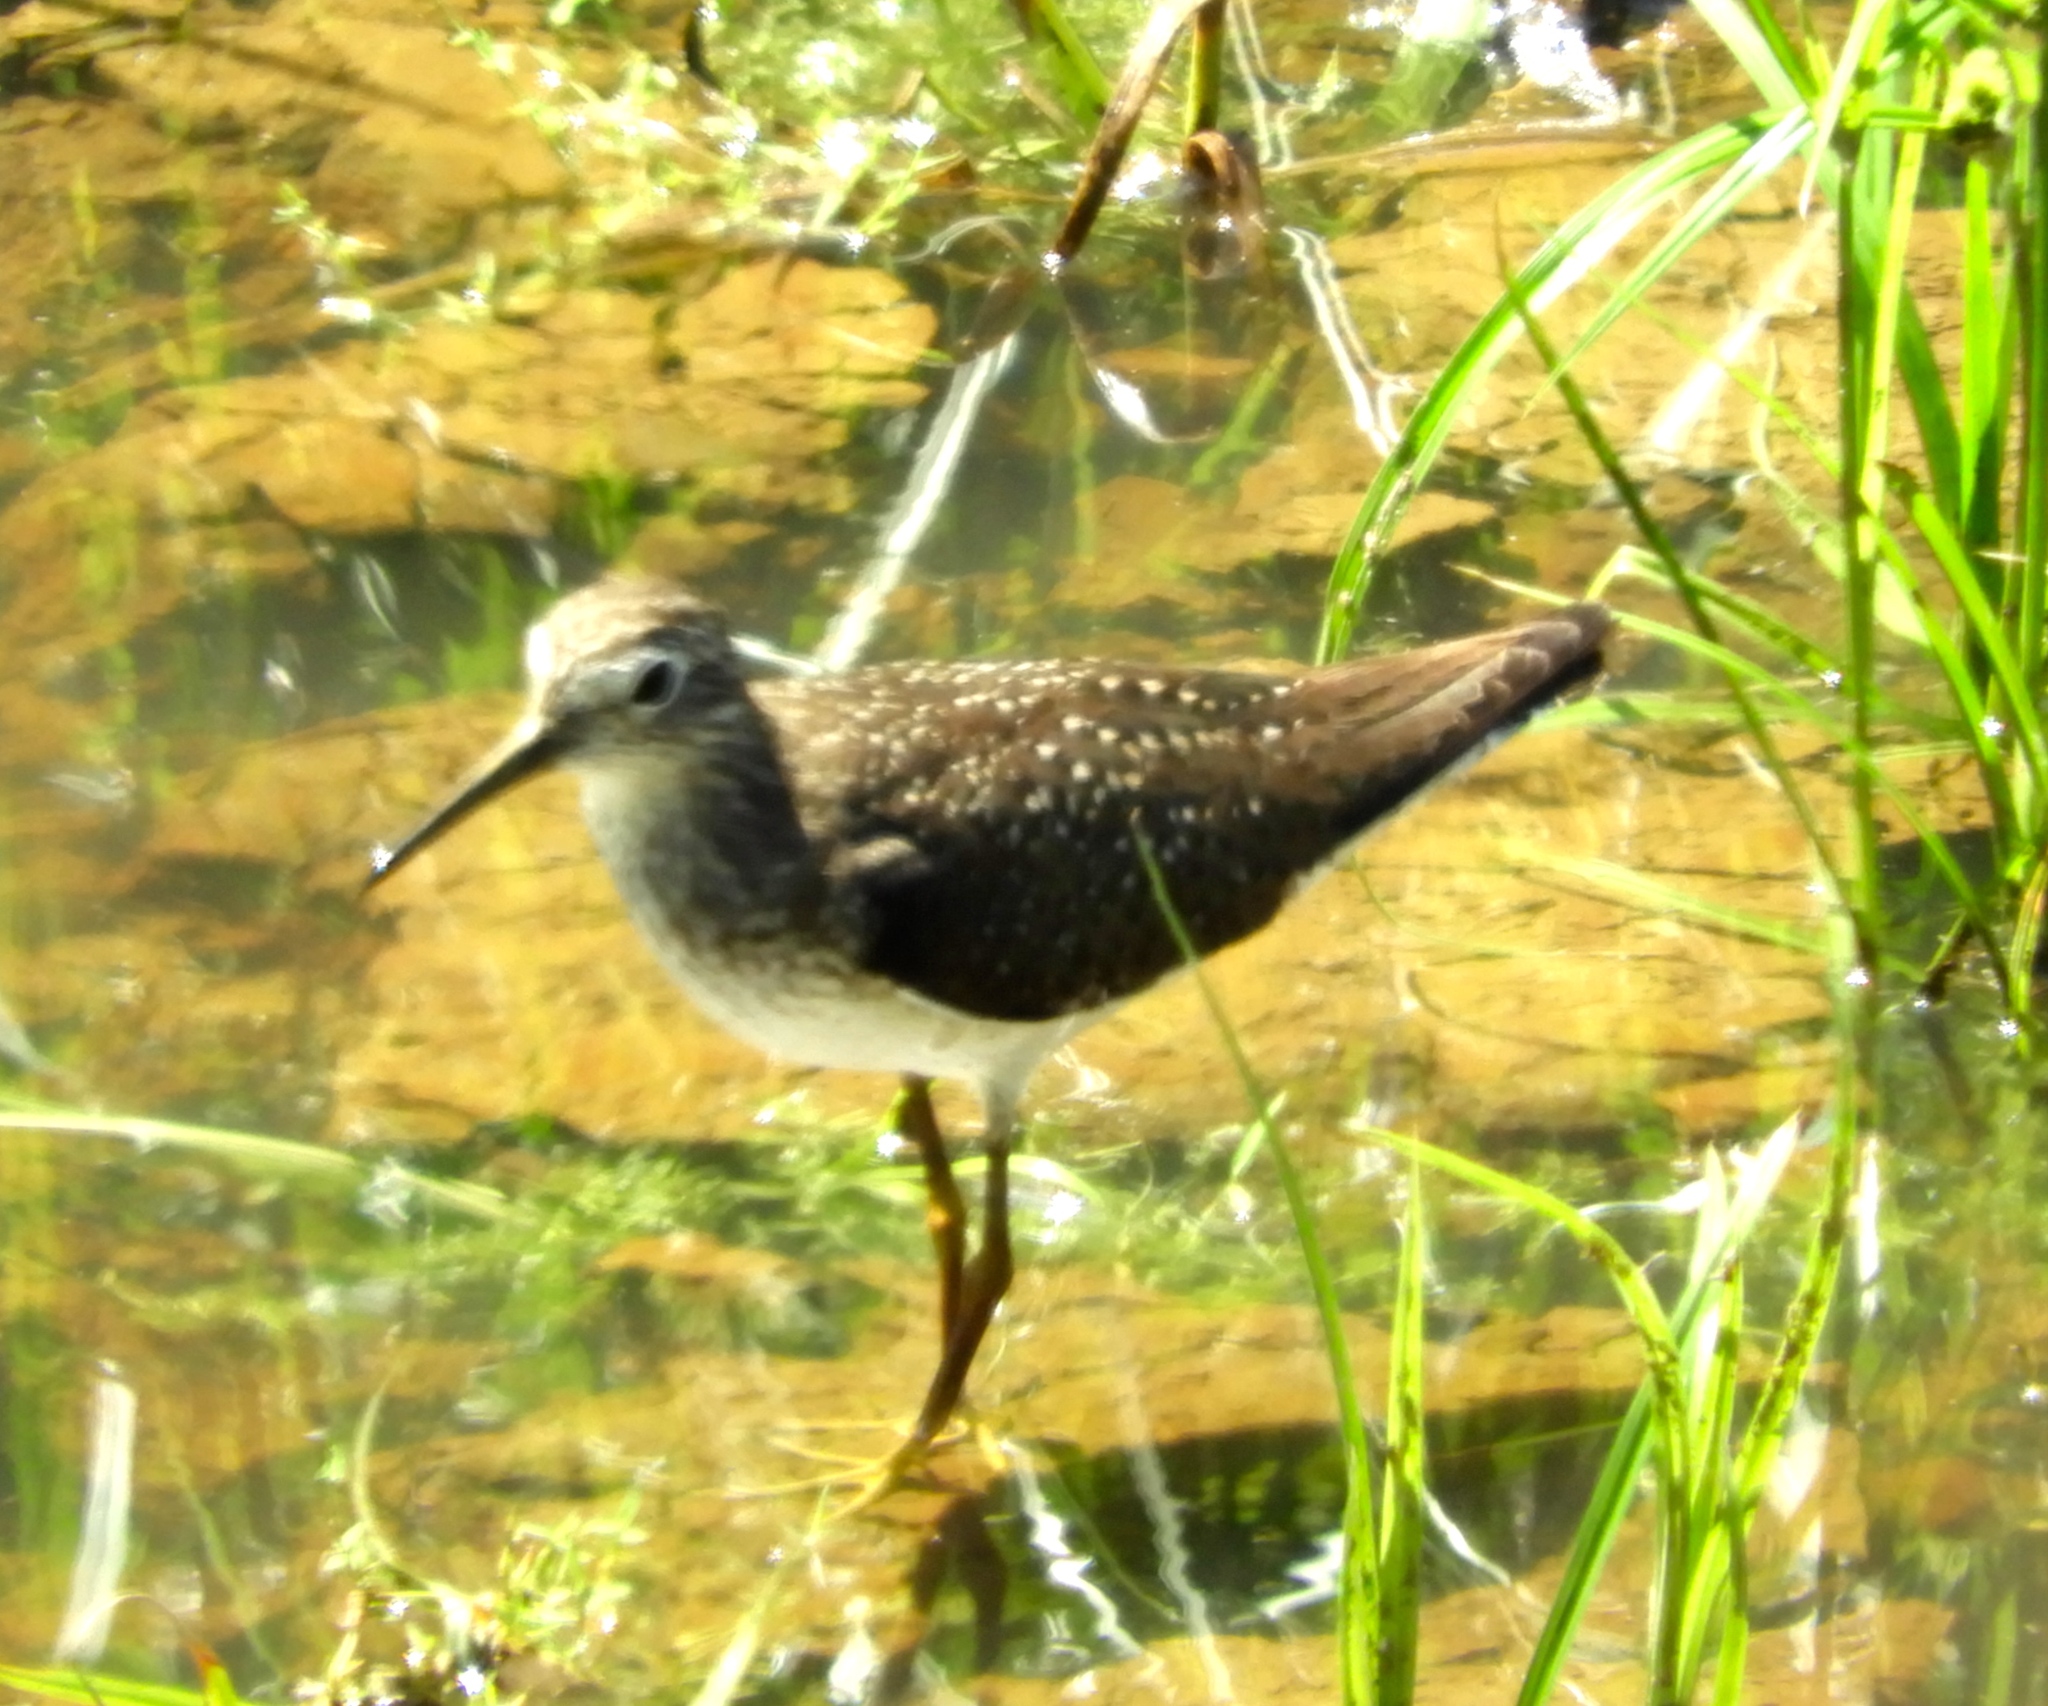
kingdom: Animalia
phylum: Chordata
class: Aves
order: Charadriiformes
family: Scolopacidae
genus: Tringa
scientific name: Tringa solitaria
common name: Solitary sandpiper
